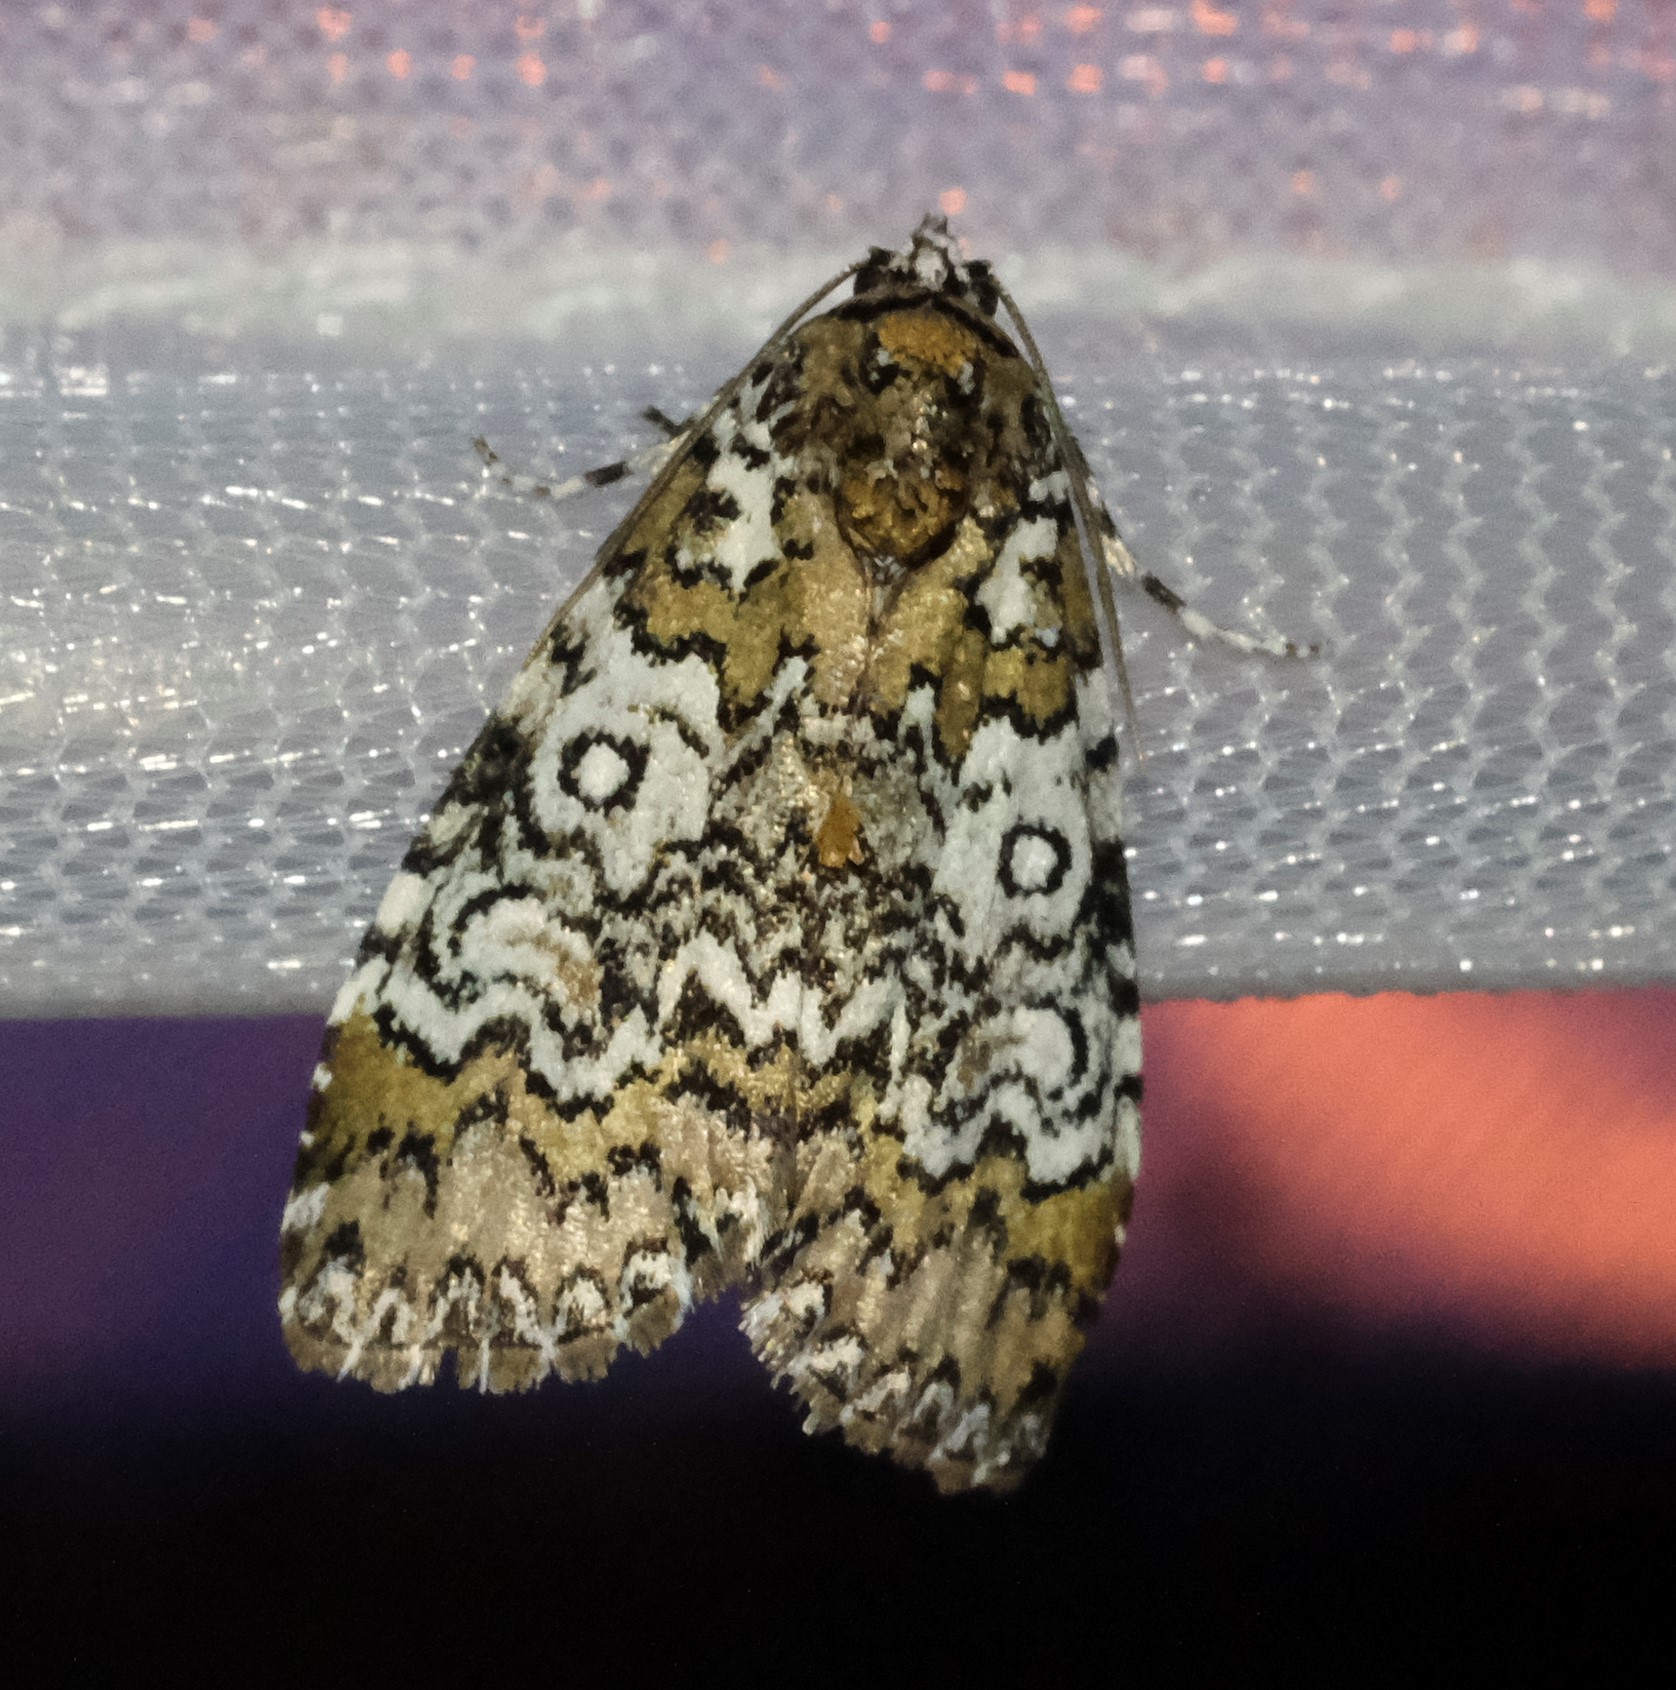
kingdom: Animalia
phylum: Arthropoda
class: Insecta
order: Lepidoptera
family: Noctuidae
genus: Cerma
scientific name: Cerma cora
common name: Bird dropping moth
